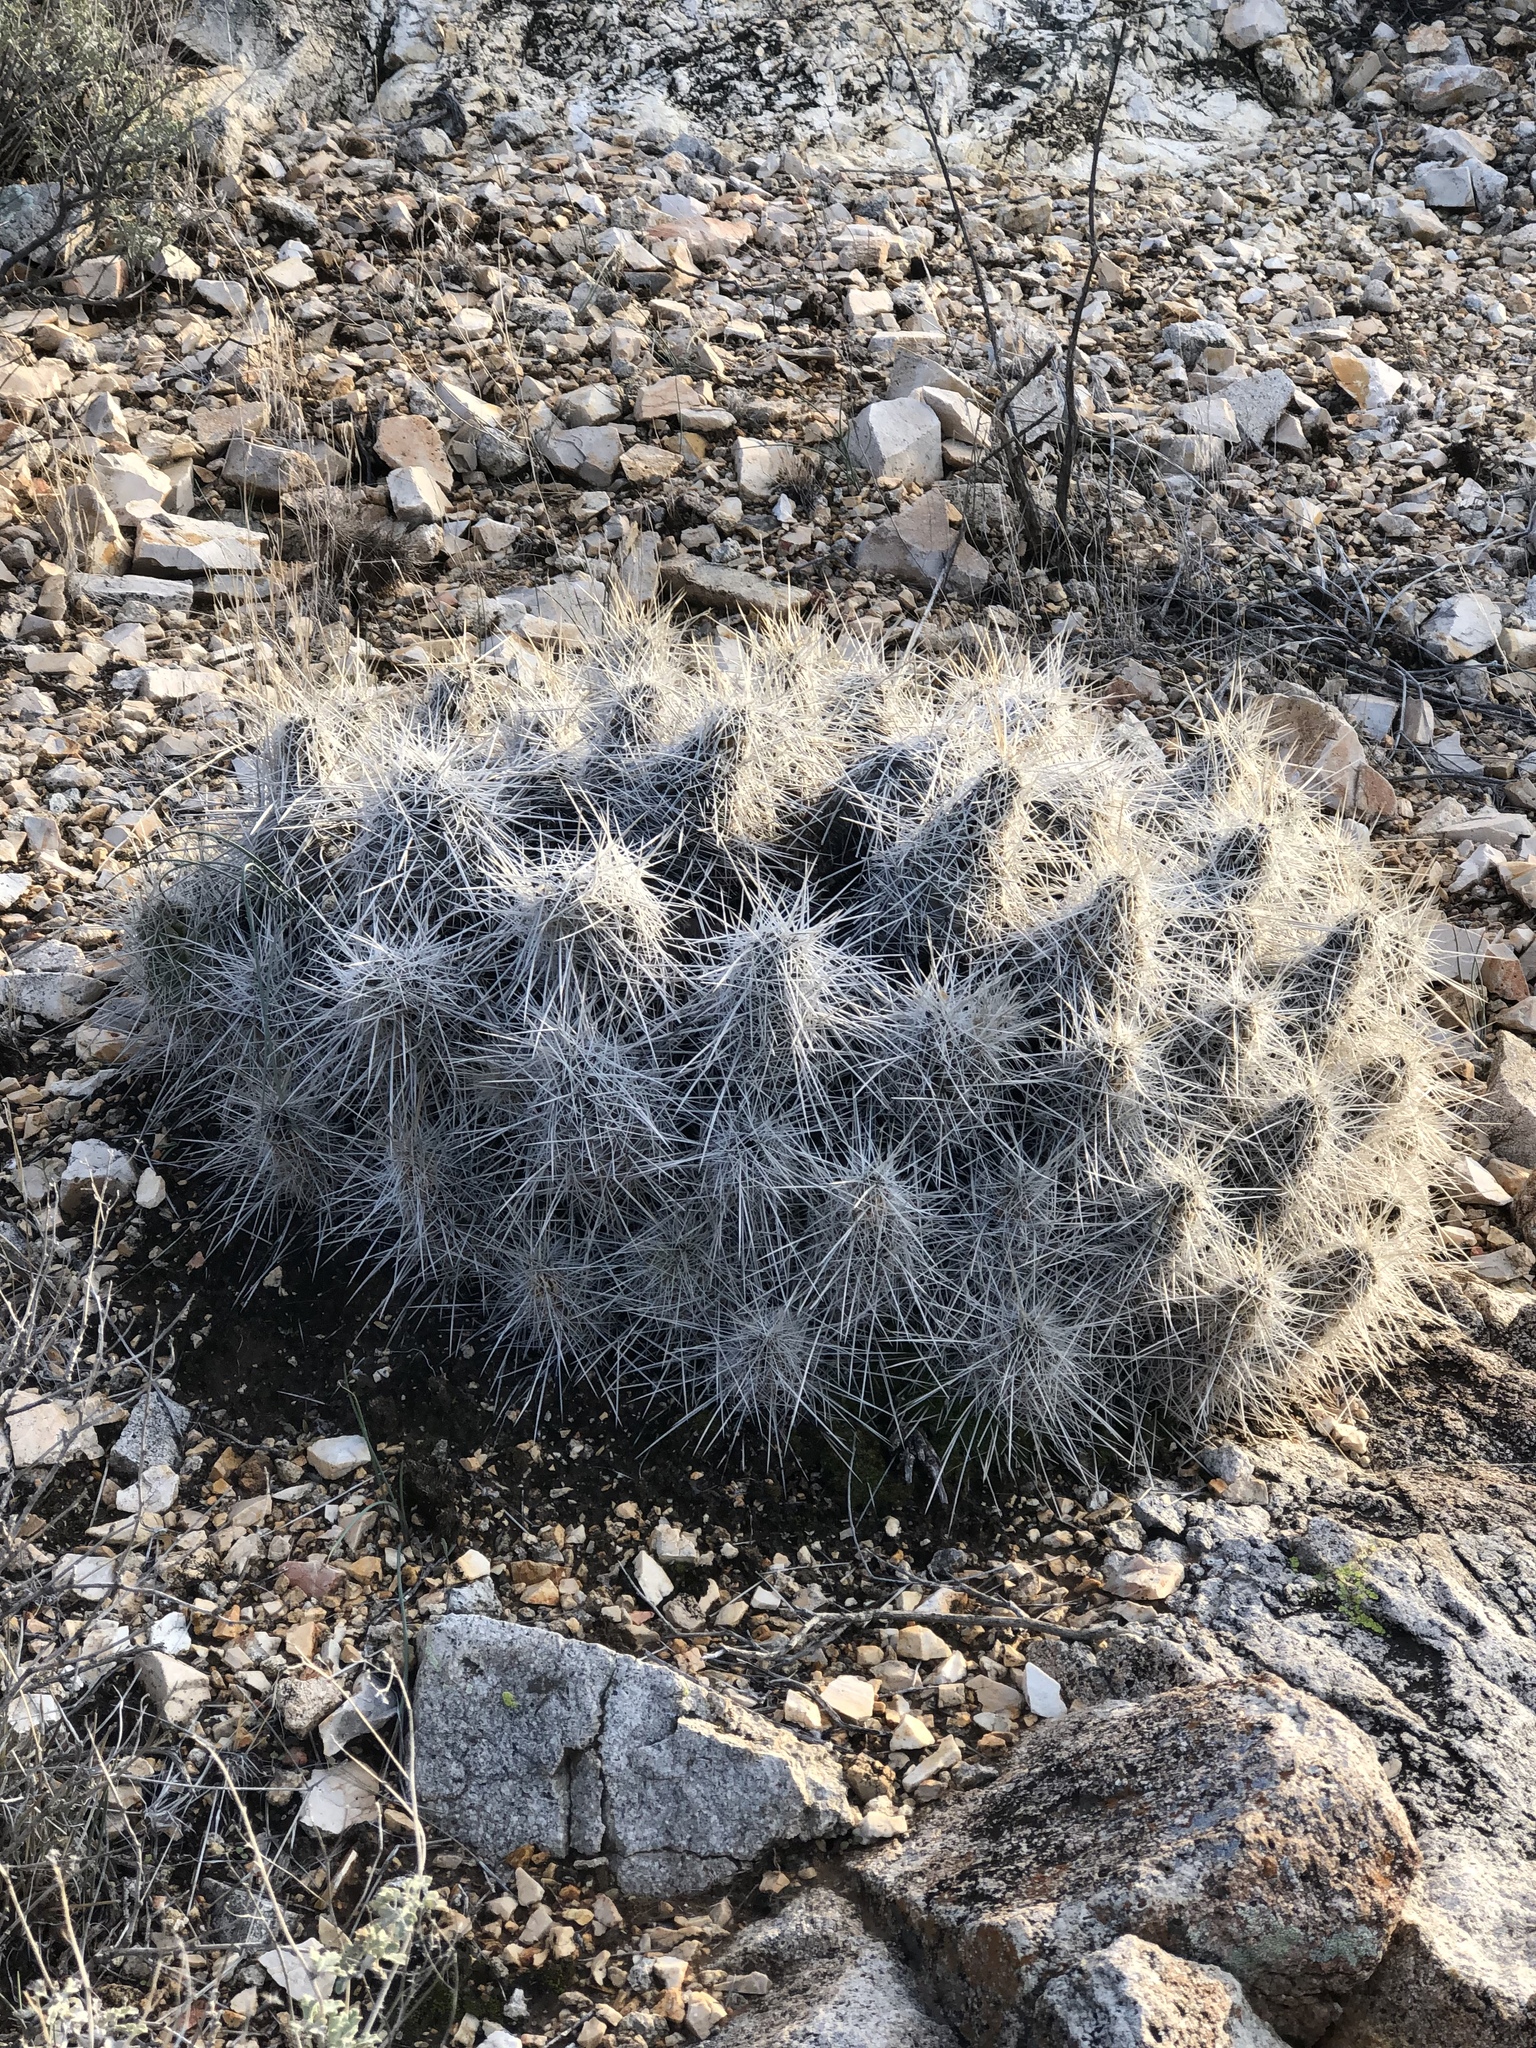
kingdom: Plantae
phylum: Tracheophyta
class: Magnoliopsida
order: Caryophyllales
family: Cactaceae
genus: Echinocereus
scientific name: Echinocereus stramineus
